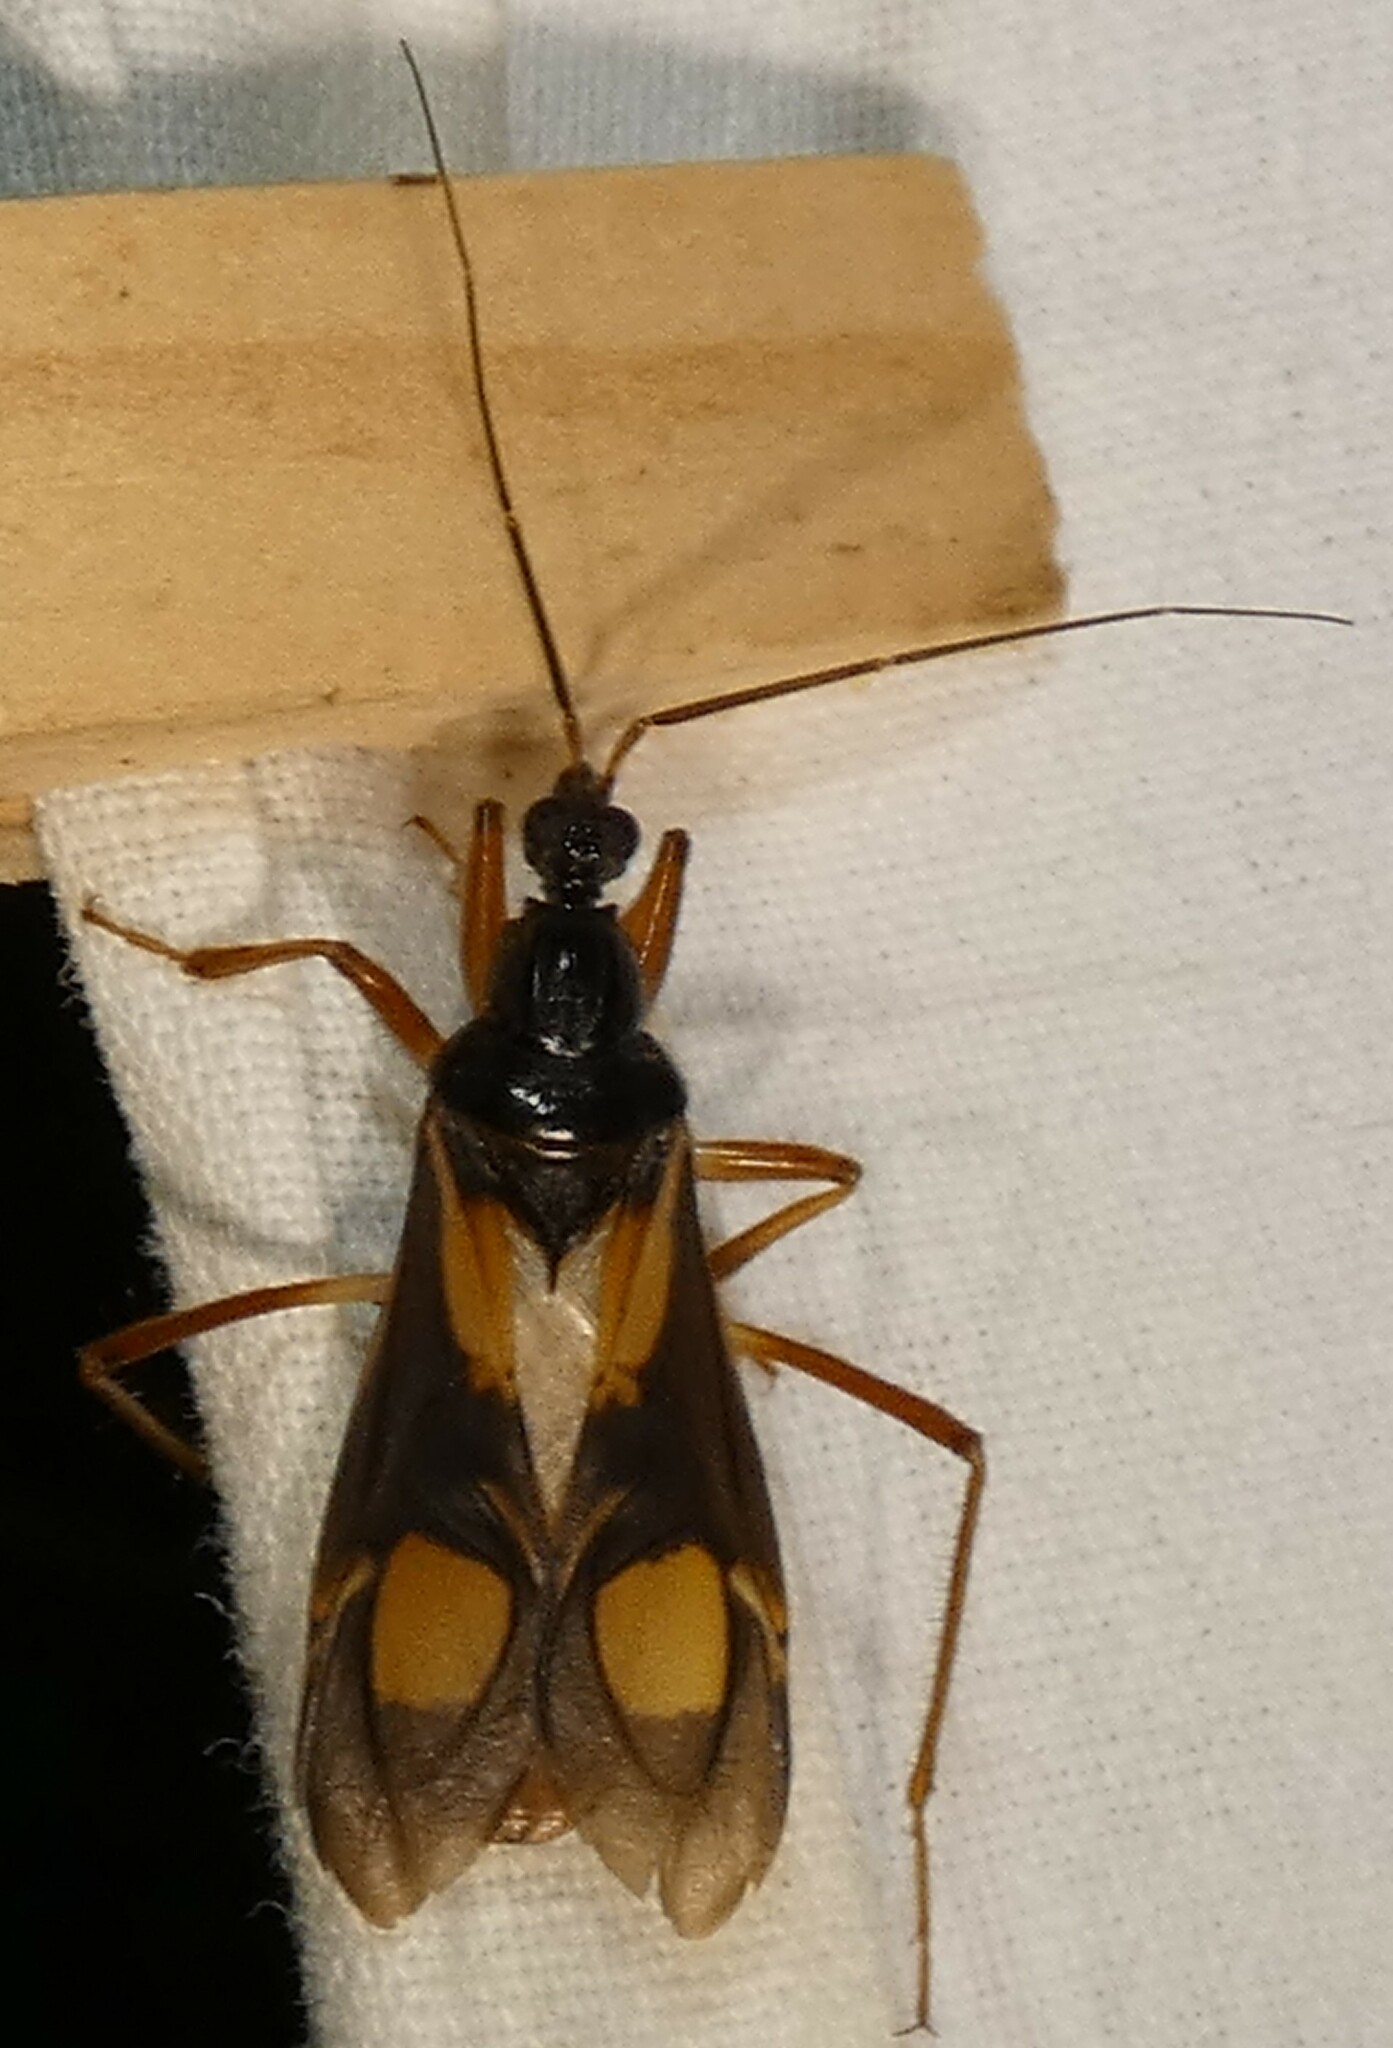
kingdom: Animalia
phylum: Arthropoda
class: Insecta
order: Hemiptera
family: Reduviidae
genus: Rasahus
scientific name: Rasahus hamatus
